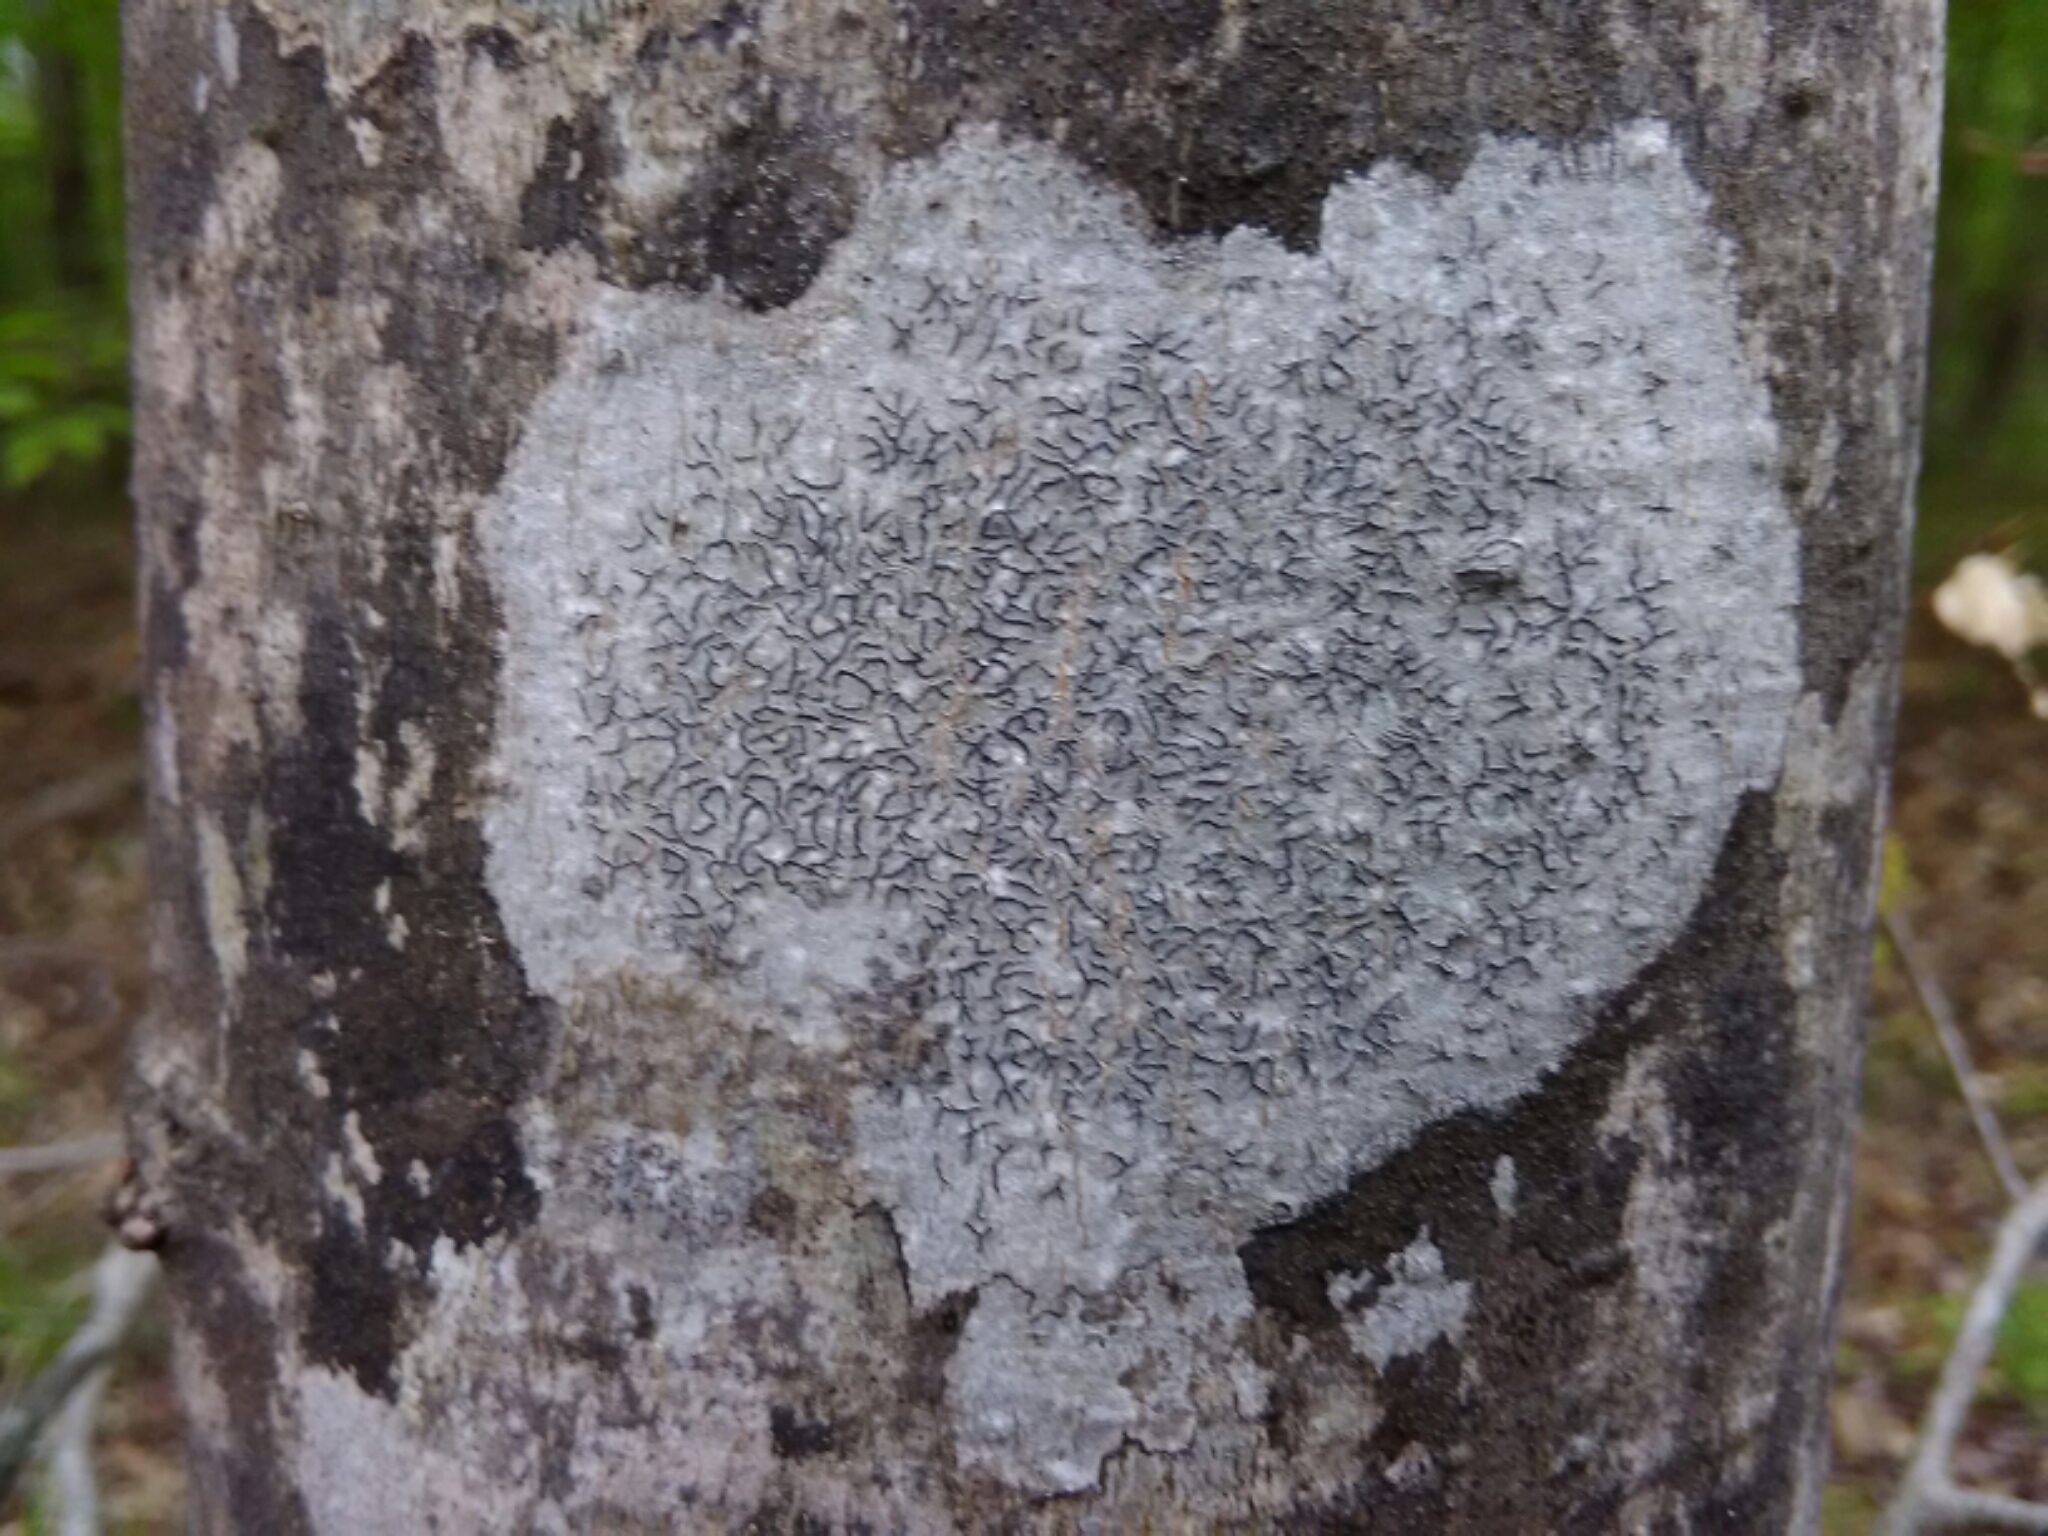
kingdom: Fungi
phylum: Ascomycota
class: Lecanoromycetes
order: Ostropales
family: Graphidaceae
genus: Graphis
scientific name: Graphis scripta
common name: Script lichen
